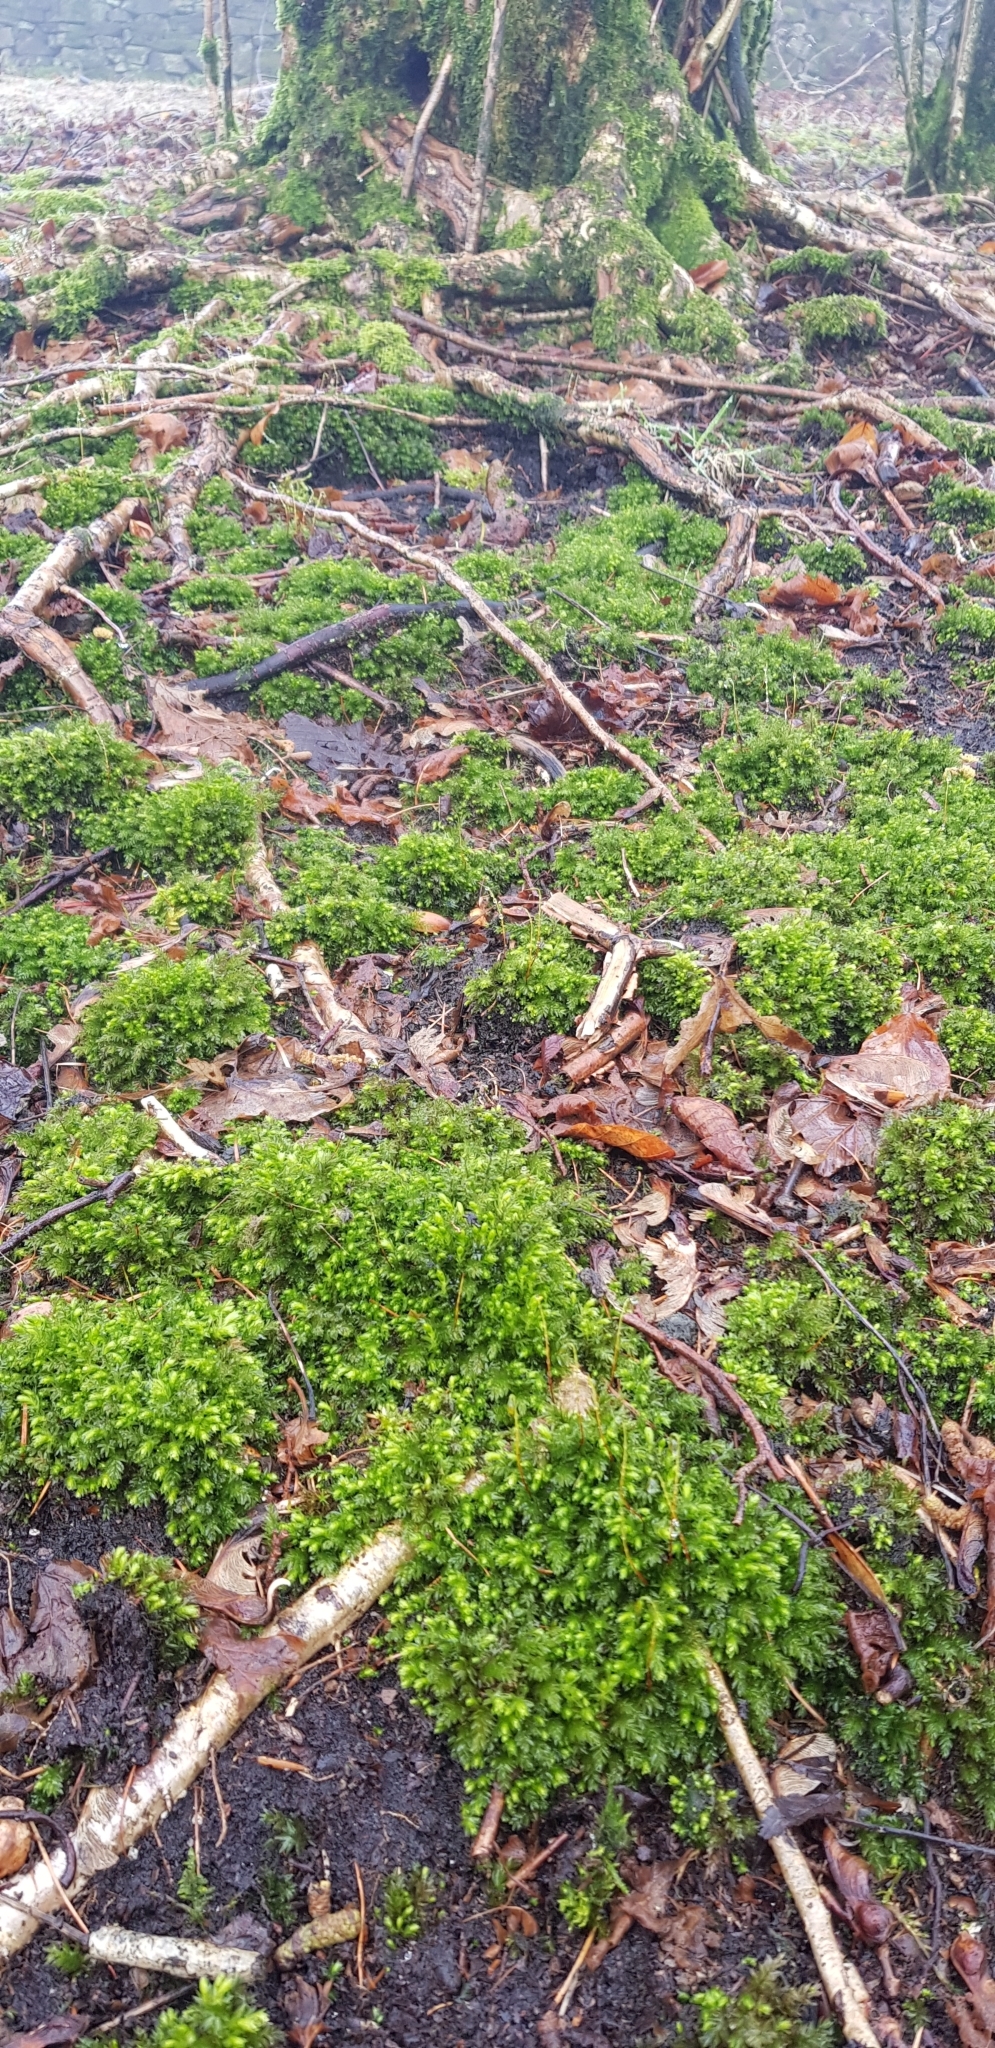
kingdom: Plantae
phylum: Bryophyta
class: Bryopsida
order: Bryales
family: Mniaceae
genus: Mnium
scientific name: Mnium hornum
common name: Swan's-neck leafy moss
